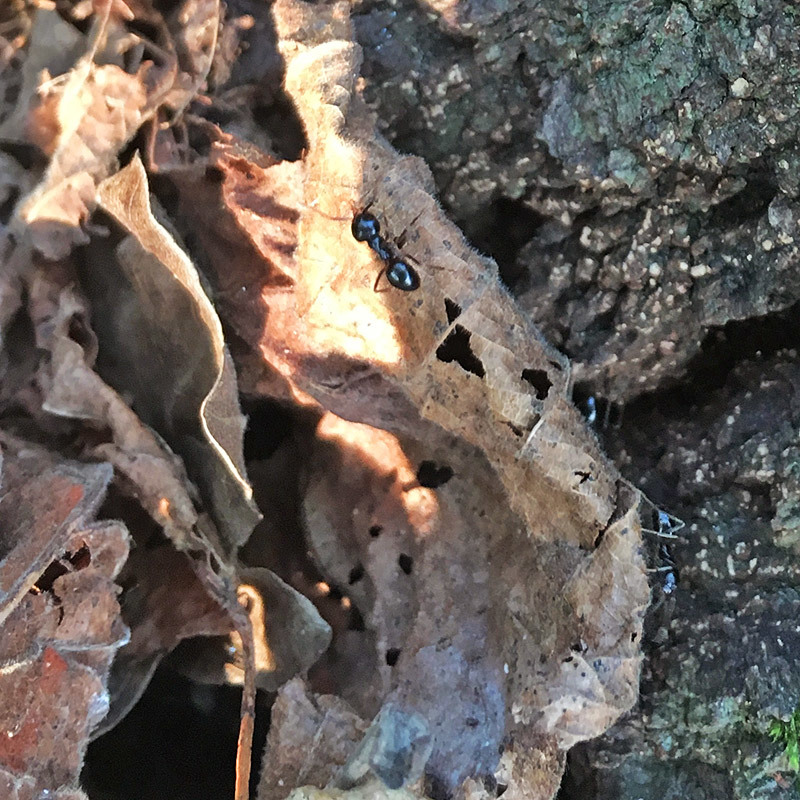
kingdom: Animalia
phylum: Arthropoda
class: Insecta
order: Hymenoptera
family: Formicidae
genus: Lasius
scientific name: Lasius fuliginosus
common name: Jet ant
